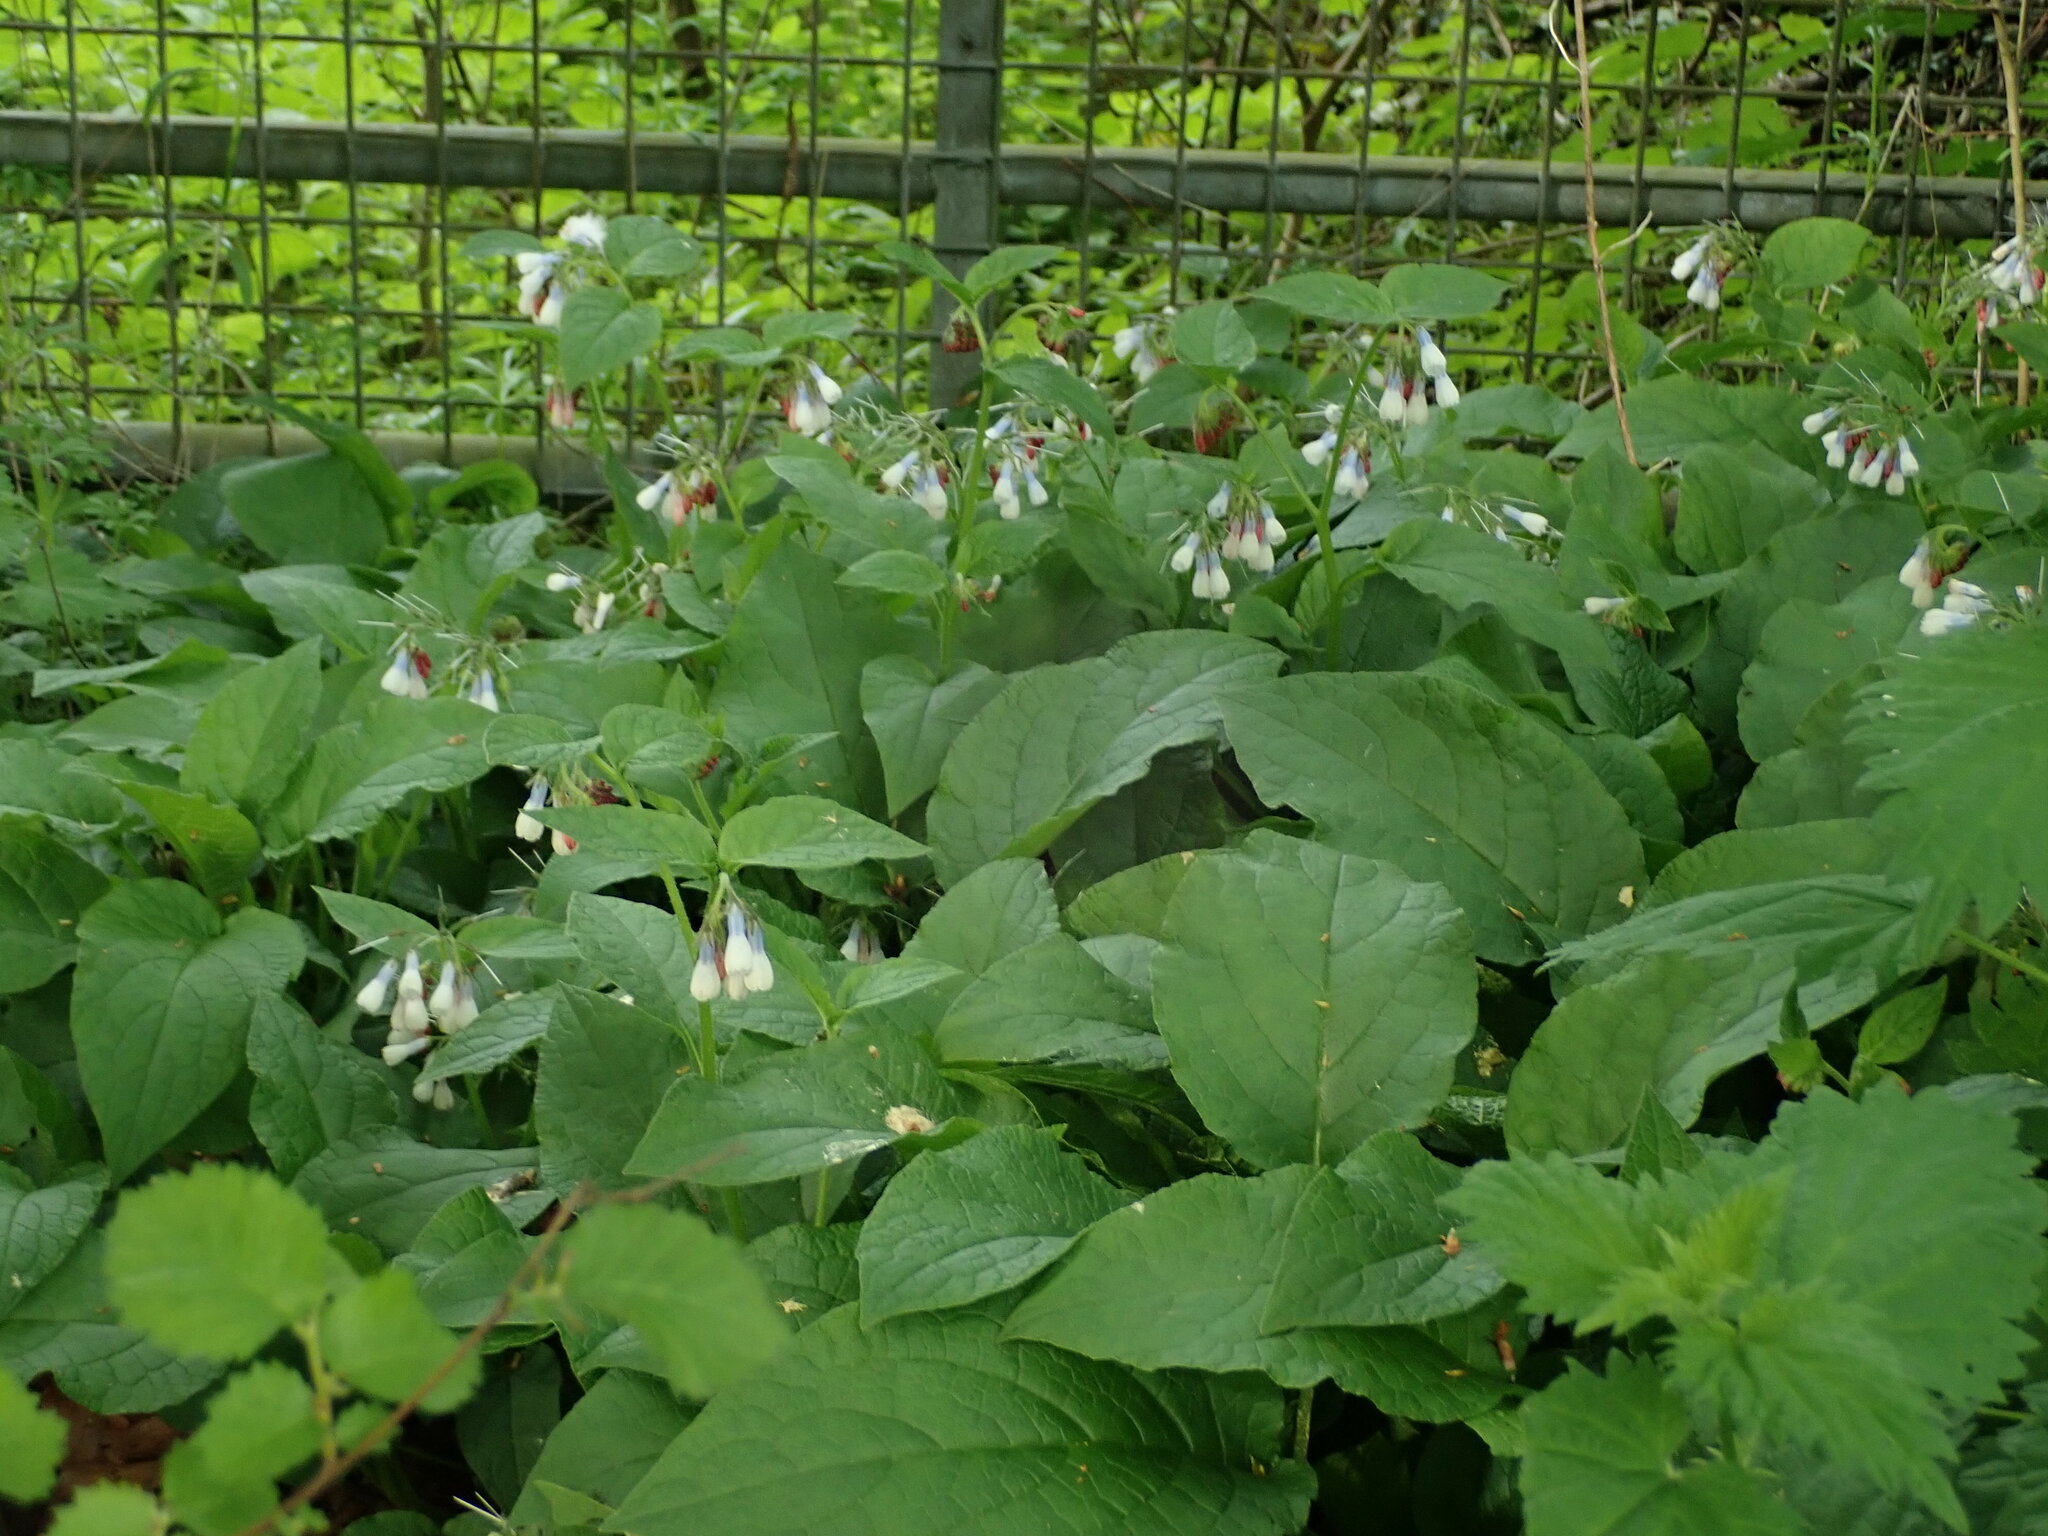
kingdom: Plantae
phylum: Tracheophyta
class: Magnoliopsida
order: Boraginales
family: Boraginaceae
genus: Symphytum
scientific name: Symphytum hidcotense
